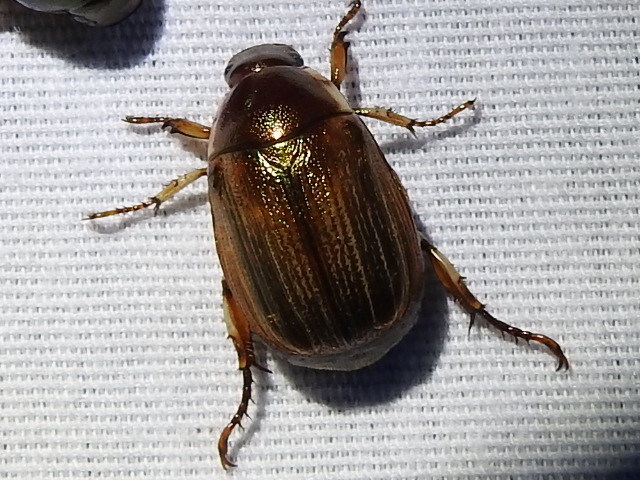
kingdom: Animalia
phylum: Arthropoda
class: Insecta
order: Coleoptera
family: Scarabaeidae
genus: Callistethus
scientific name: Callistethus marginatus
